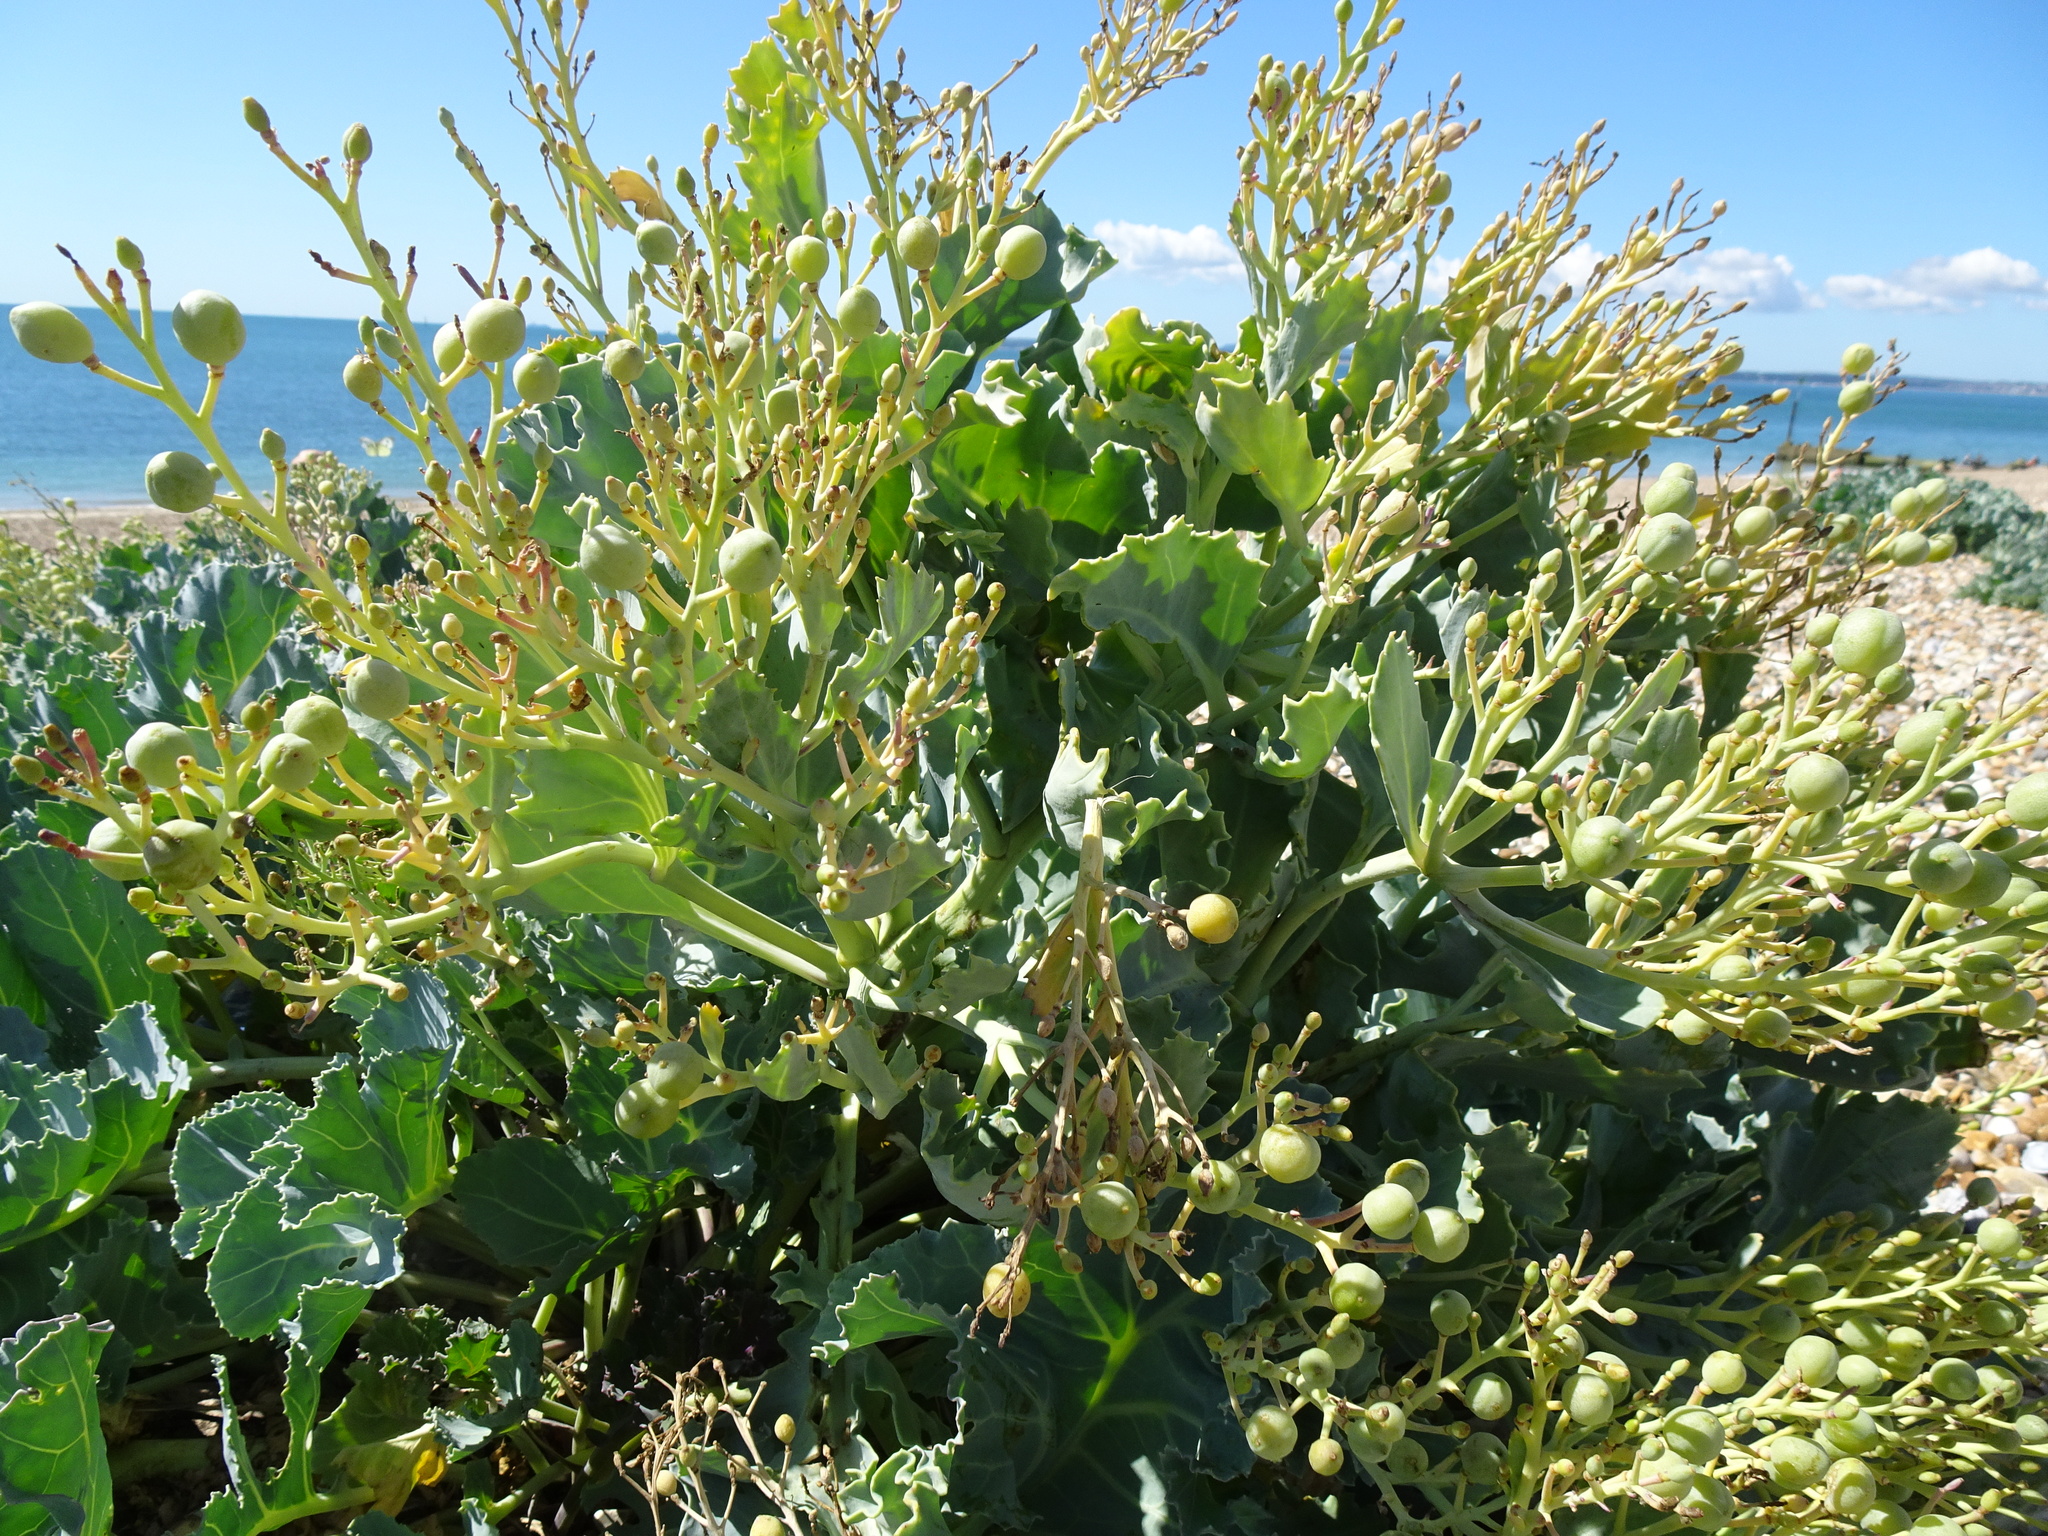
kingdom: Plantae
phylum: Tracheophyta
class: Magnoliopsida
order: Brassicales
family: Brassicaceae
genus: Crambe
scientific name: Crambe maritima
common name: Sea-kale
